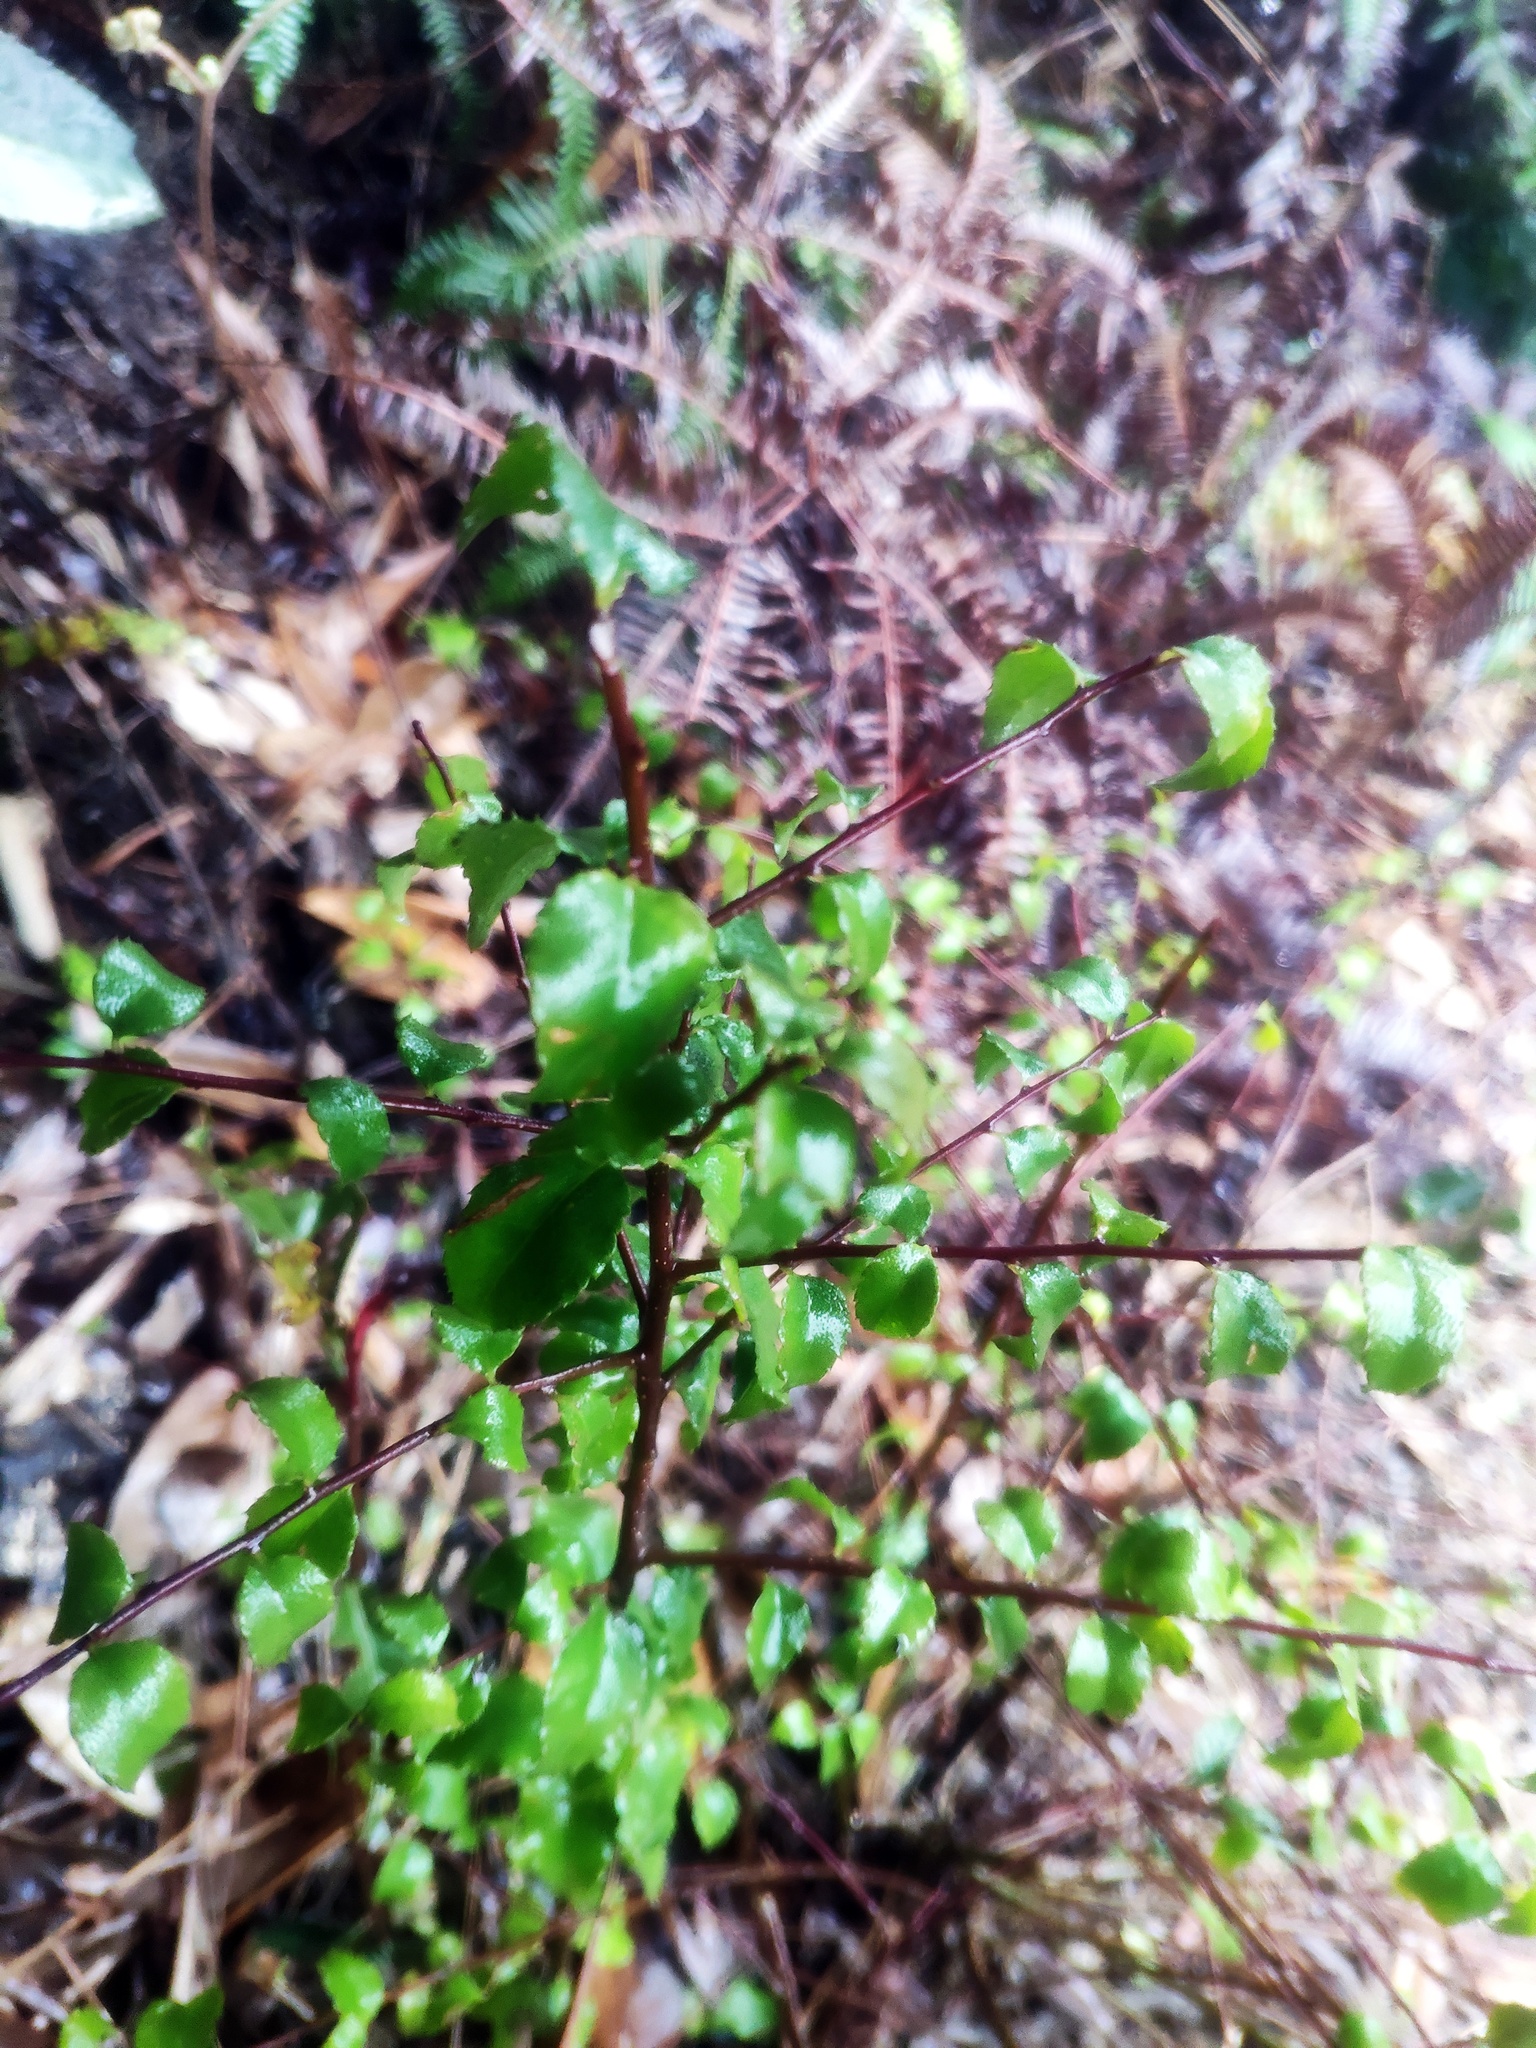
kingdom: Plantae
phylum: Tracheophyta
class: Magnoliopsida
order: Aquifoliales
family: Aquifoliaceae
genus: Ilex
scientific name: Ilex asprella
